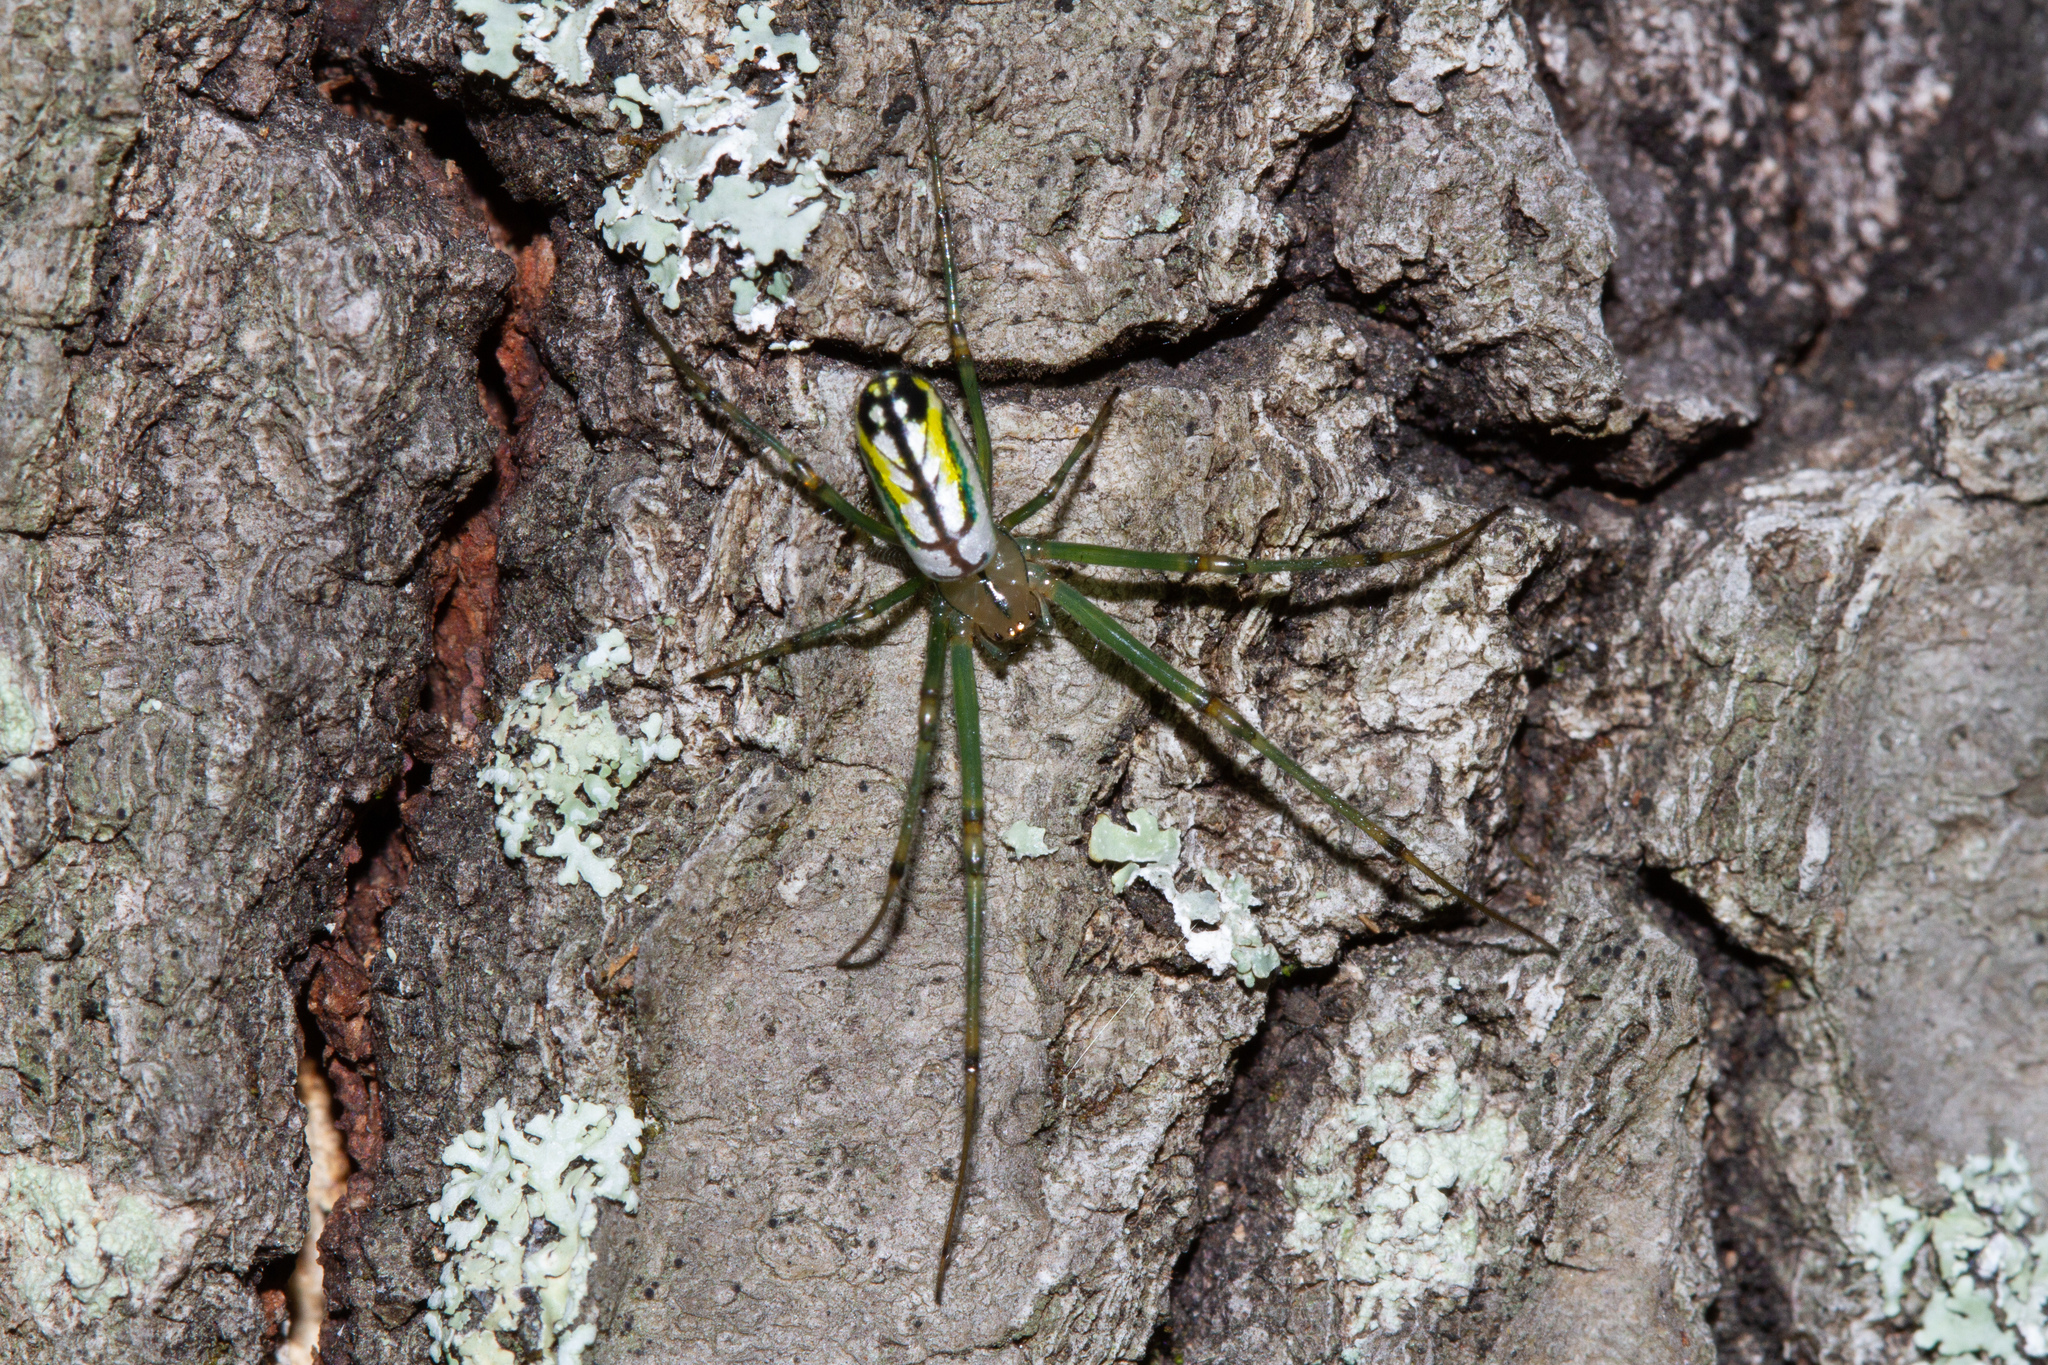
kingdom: Animalia
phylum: Arthropoda
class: Arachnida
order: Araneae
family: Tetragnathidae
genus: Leucauge
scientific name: Leucauge venusta
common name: Longjawed orb weavers
